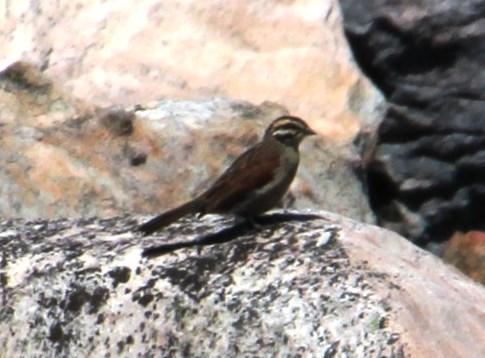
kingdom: Animalia
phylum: Chordata
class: Aves
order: Passeriformes
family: Emberizidae
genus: Emberiza
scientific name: Emberiza capensis
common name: Cape bunting
